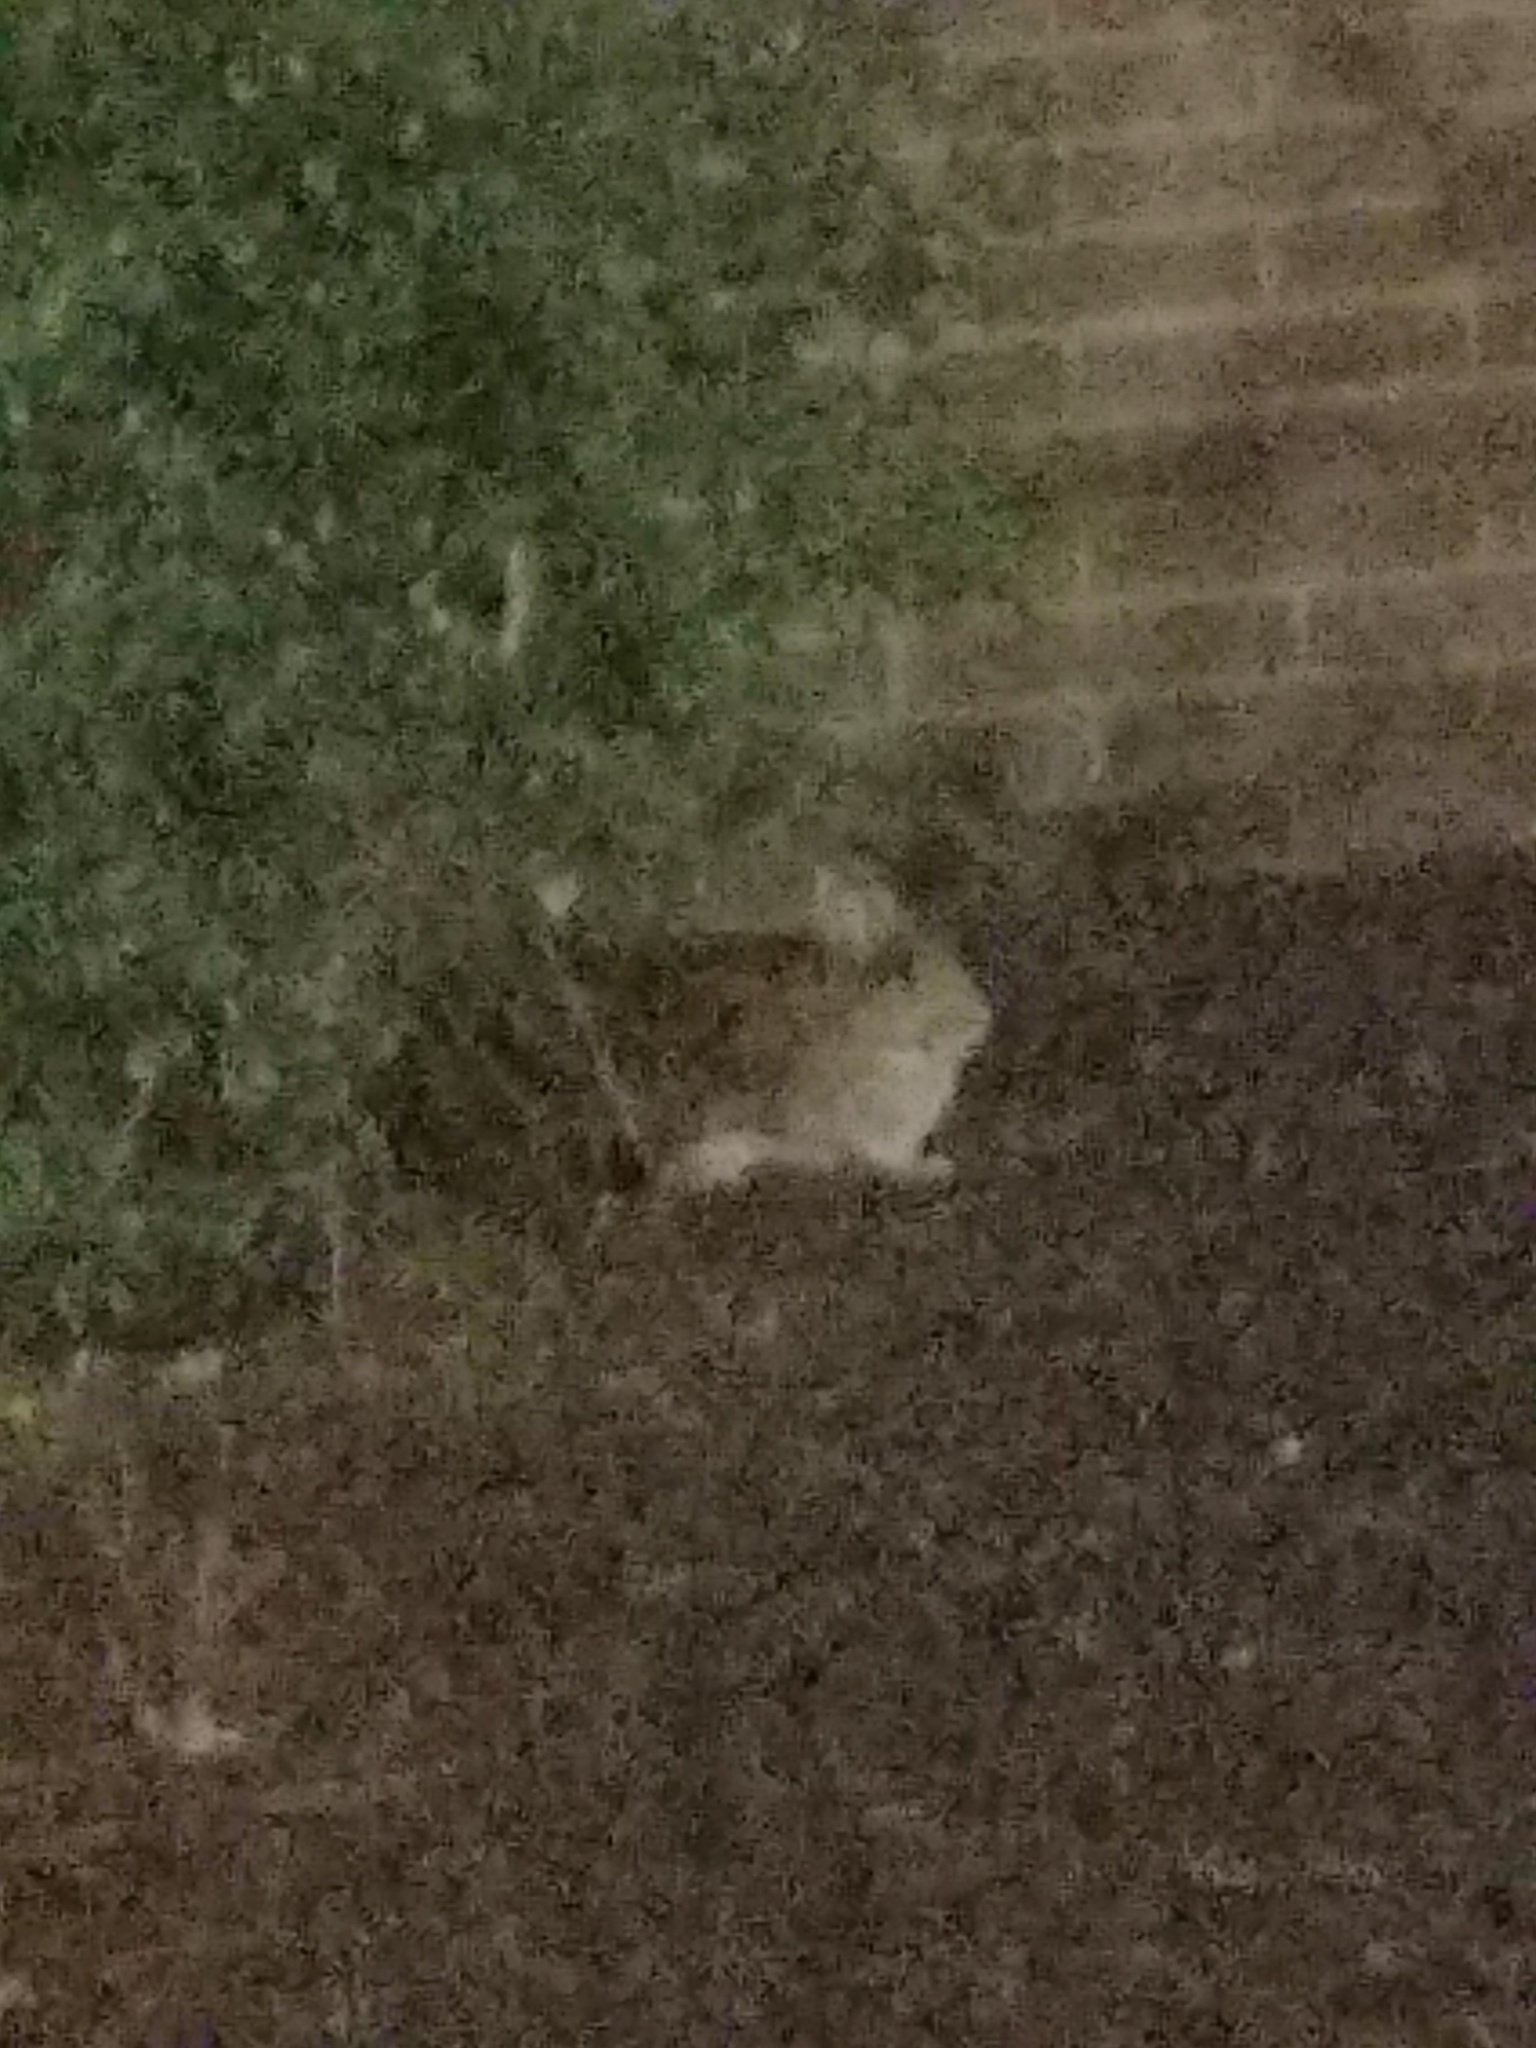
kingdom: Animalia
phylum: Chordata
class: Mammalia
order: Lagomorpha
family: Leporidae
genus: Sylvilagus
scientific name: Sylvilagus floridanus
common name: Eastern cottontail
